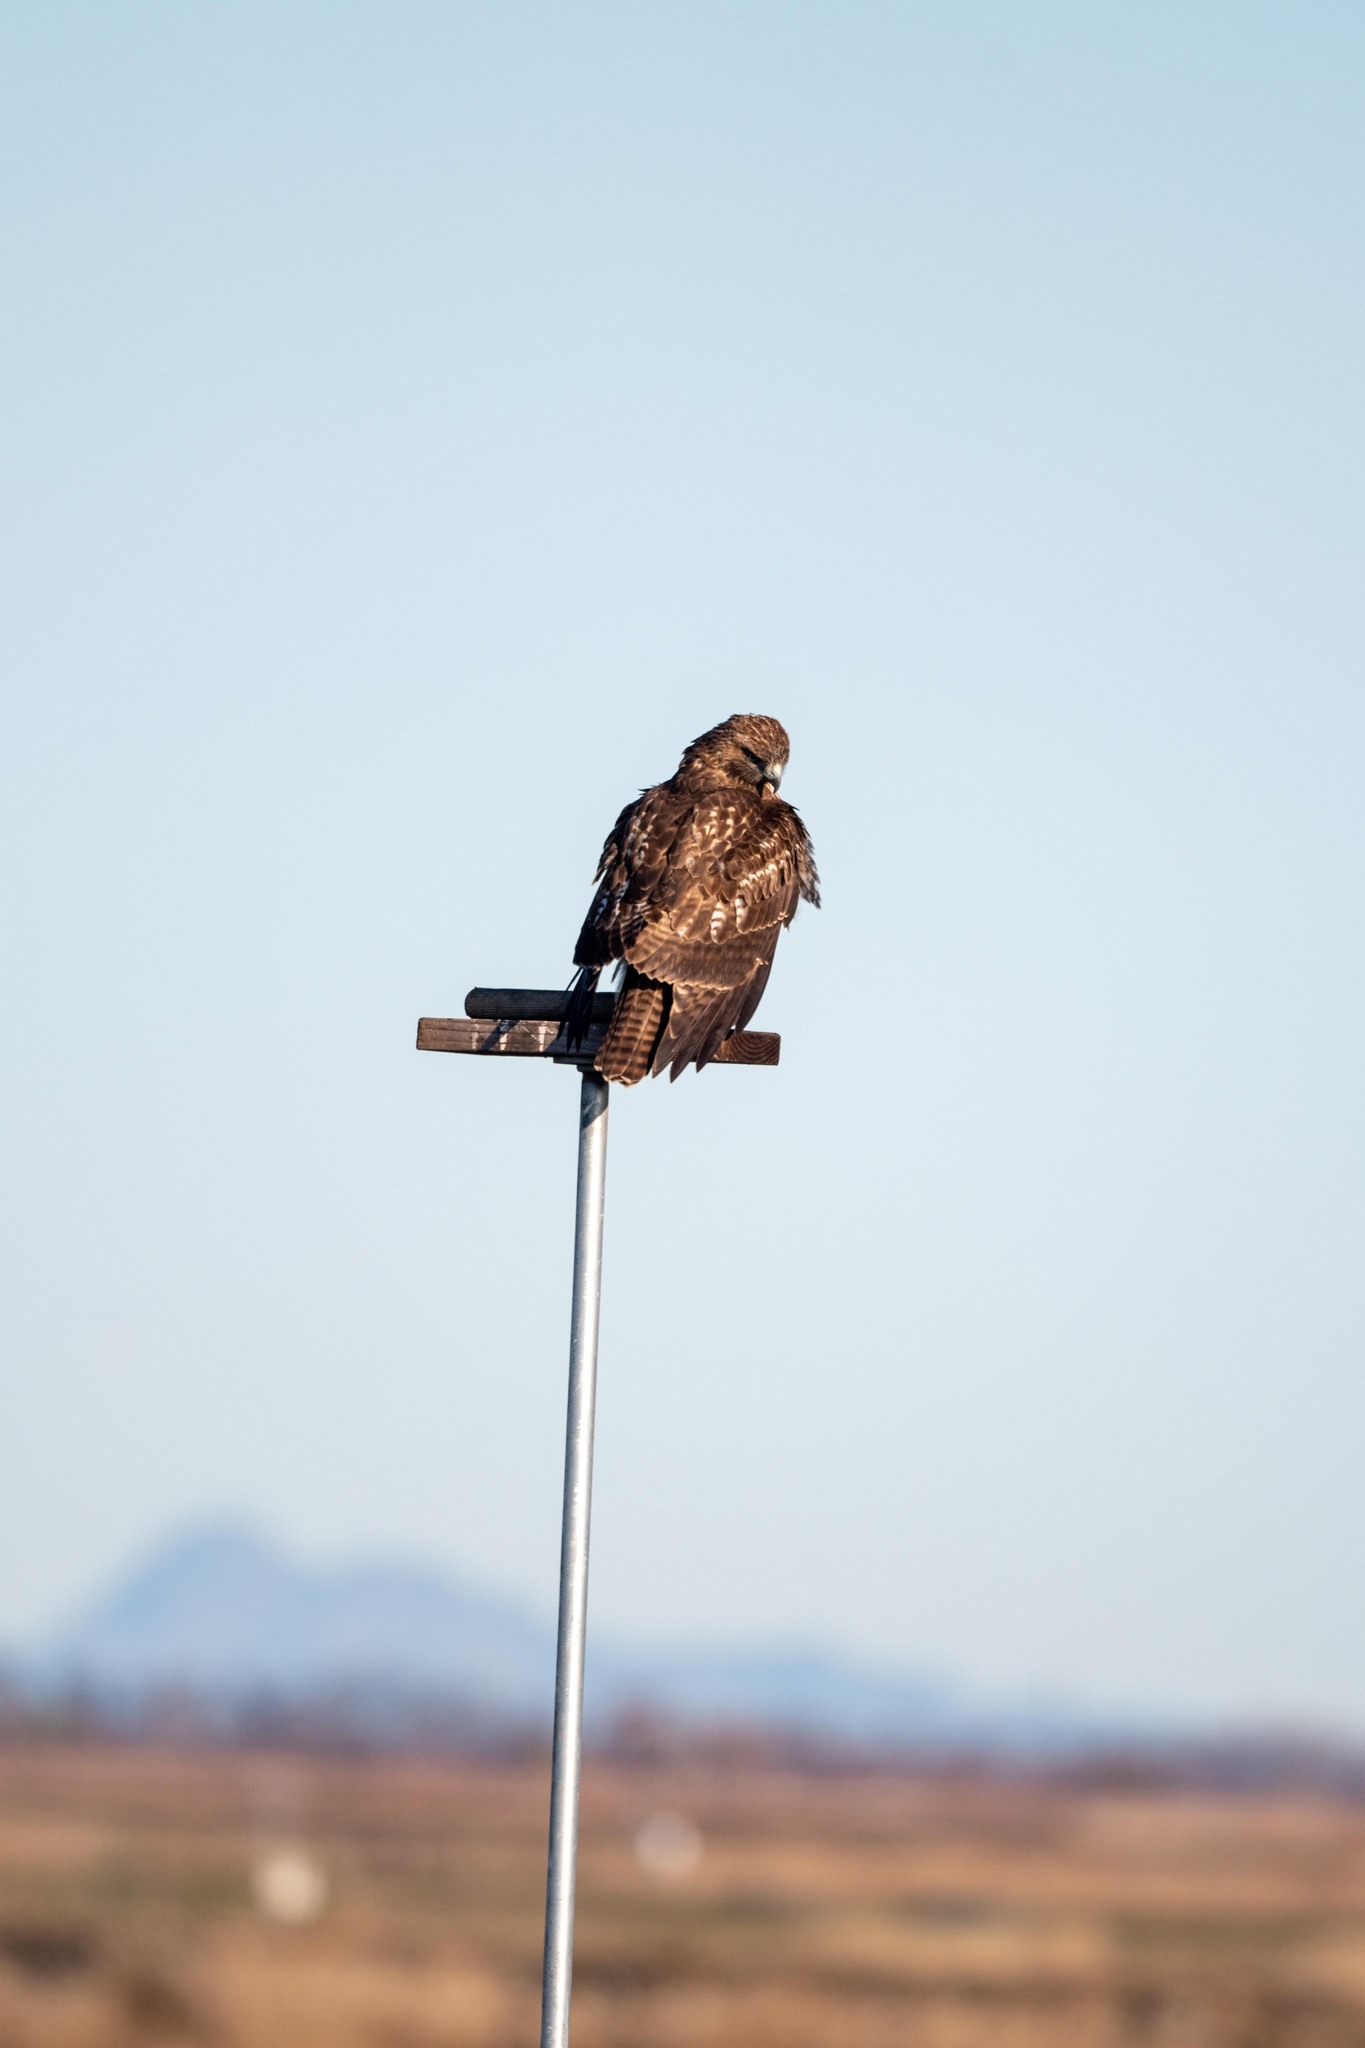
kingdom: Animalia
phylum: Chordata
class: Aves
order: Accipitriformes
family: Accipitridae
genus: Buteo
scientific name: Buteo jamaicensis
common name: Red-tailed hawk
